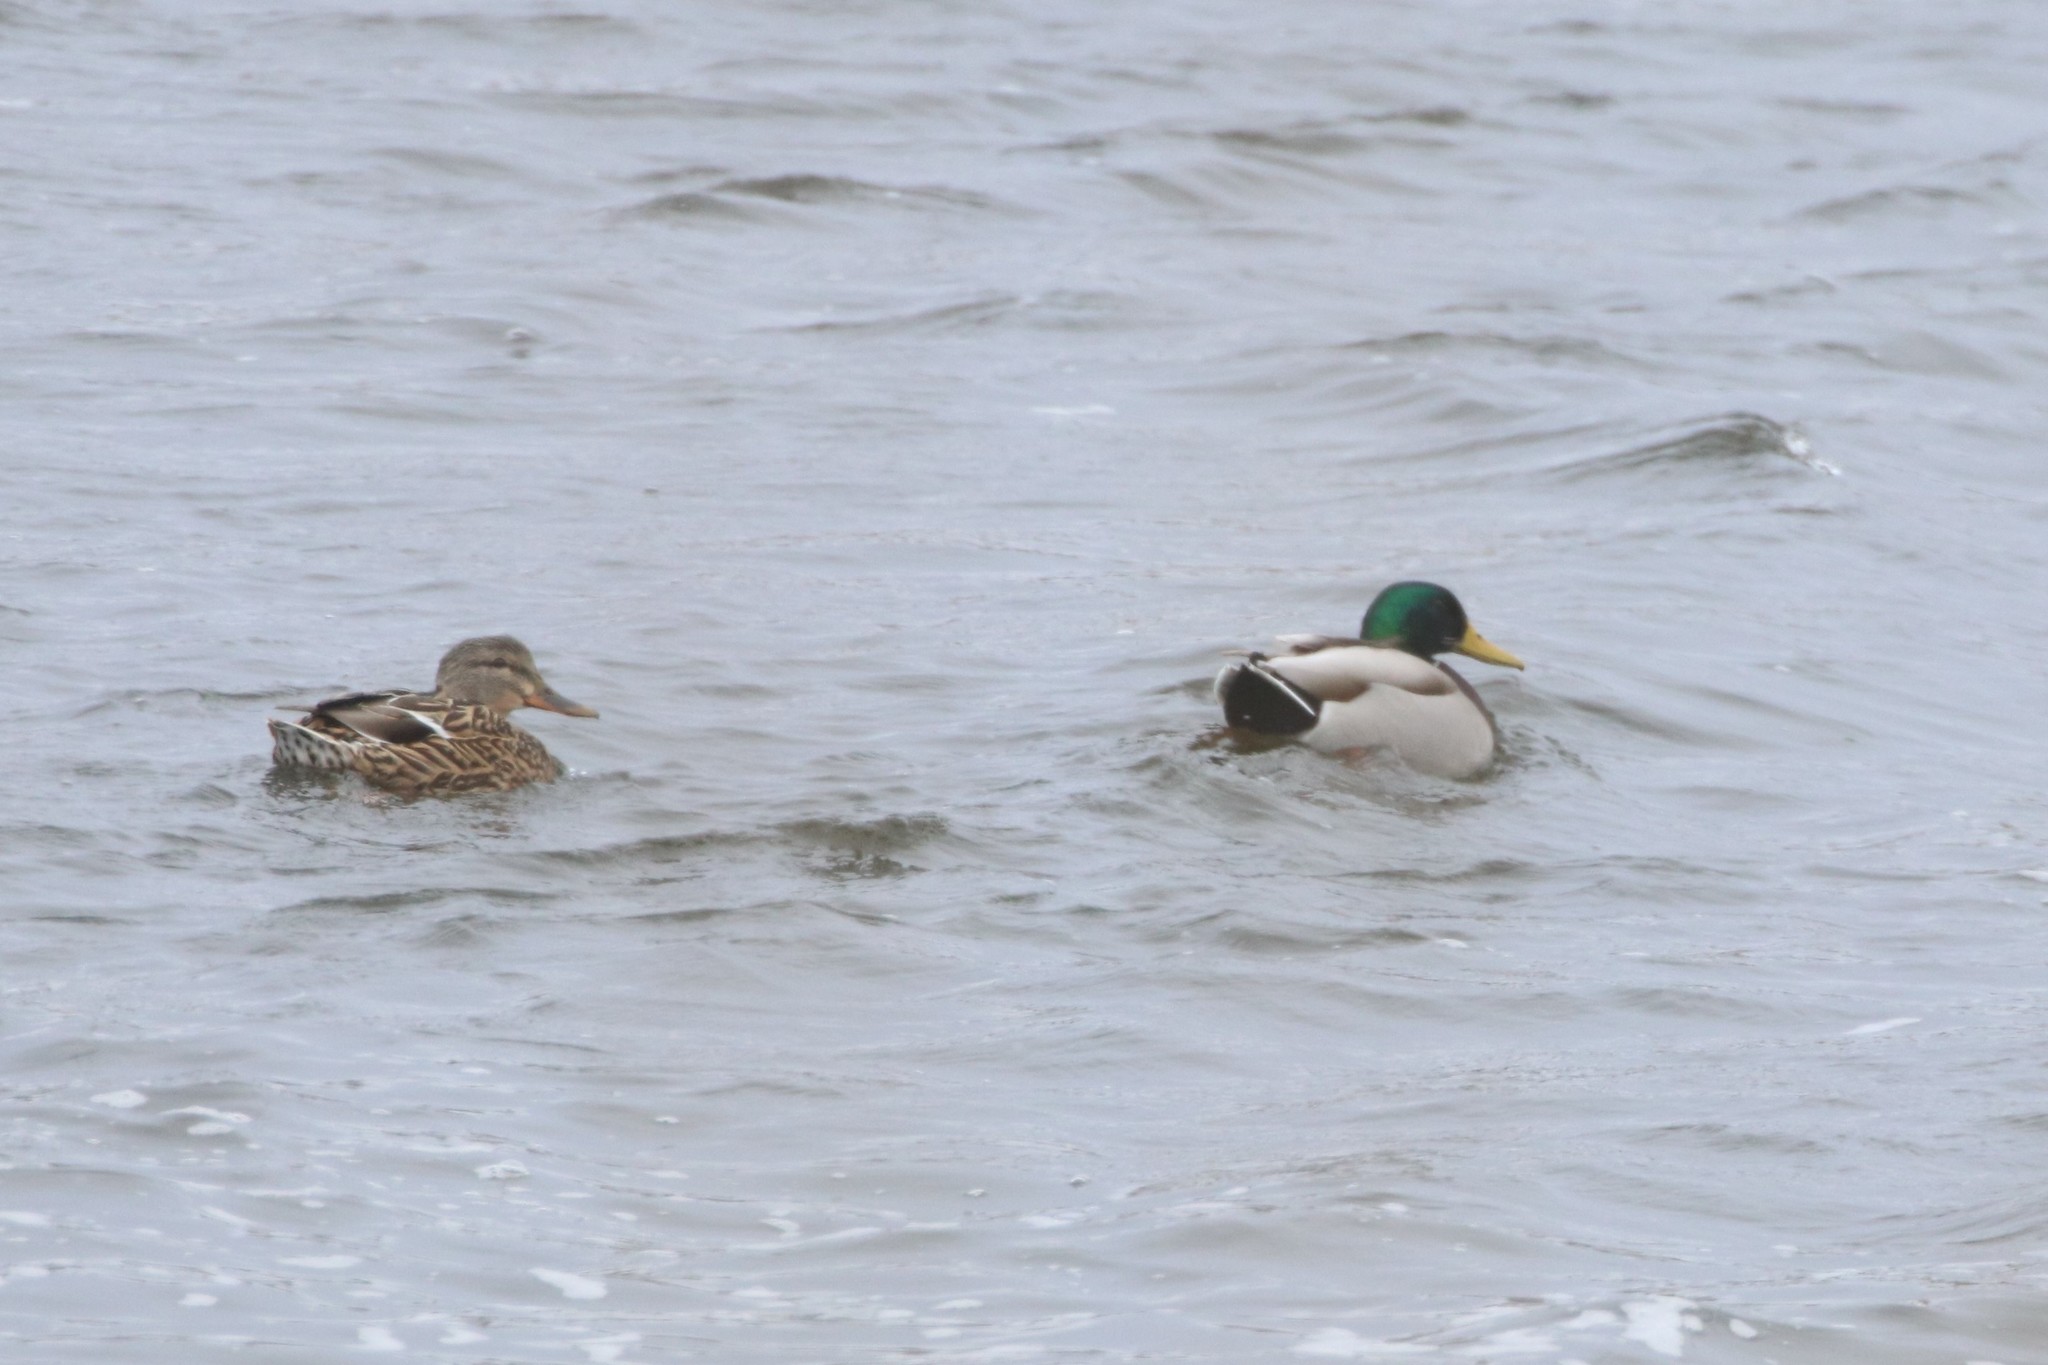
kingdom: Animalia
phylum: Chordata
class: Aves
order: Anseriformes
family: Anatidae
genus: Anas
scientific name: Anas platyrhynchos
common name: Mallard
